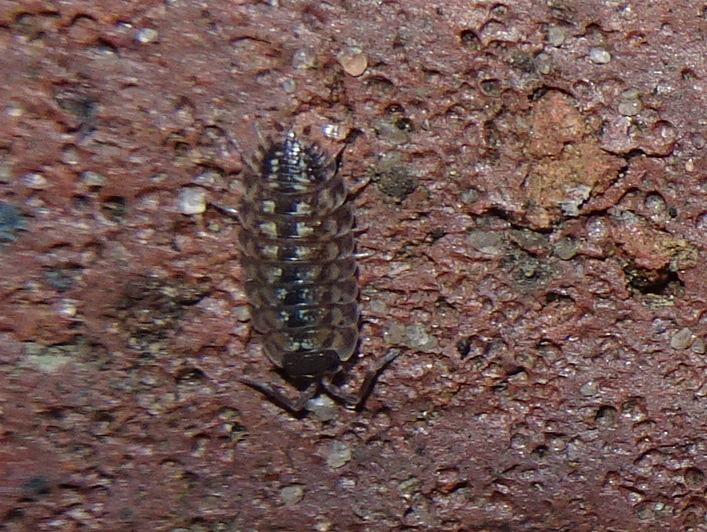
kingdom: Animalia
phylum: Arthropoda
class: Malacostraca
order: Isopoda
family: Porcellionidae
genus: Porcellio
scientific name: Porcellio spinicornis
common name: Painted woodlouse
